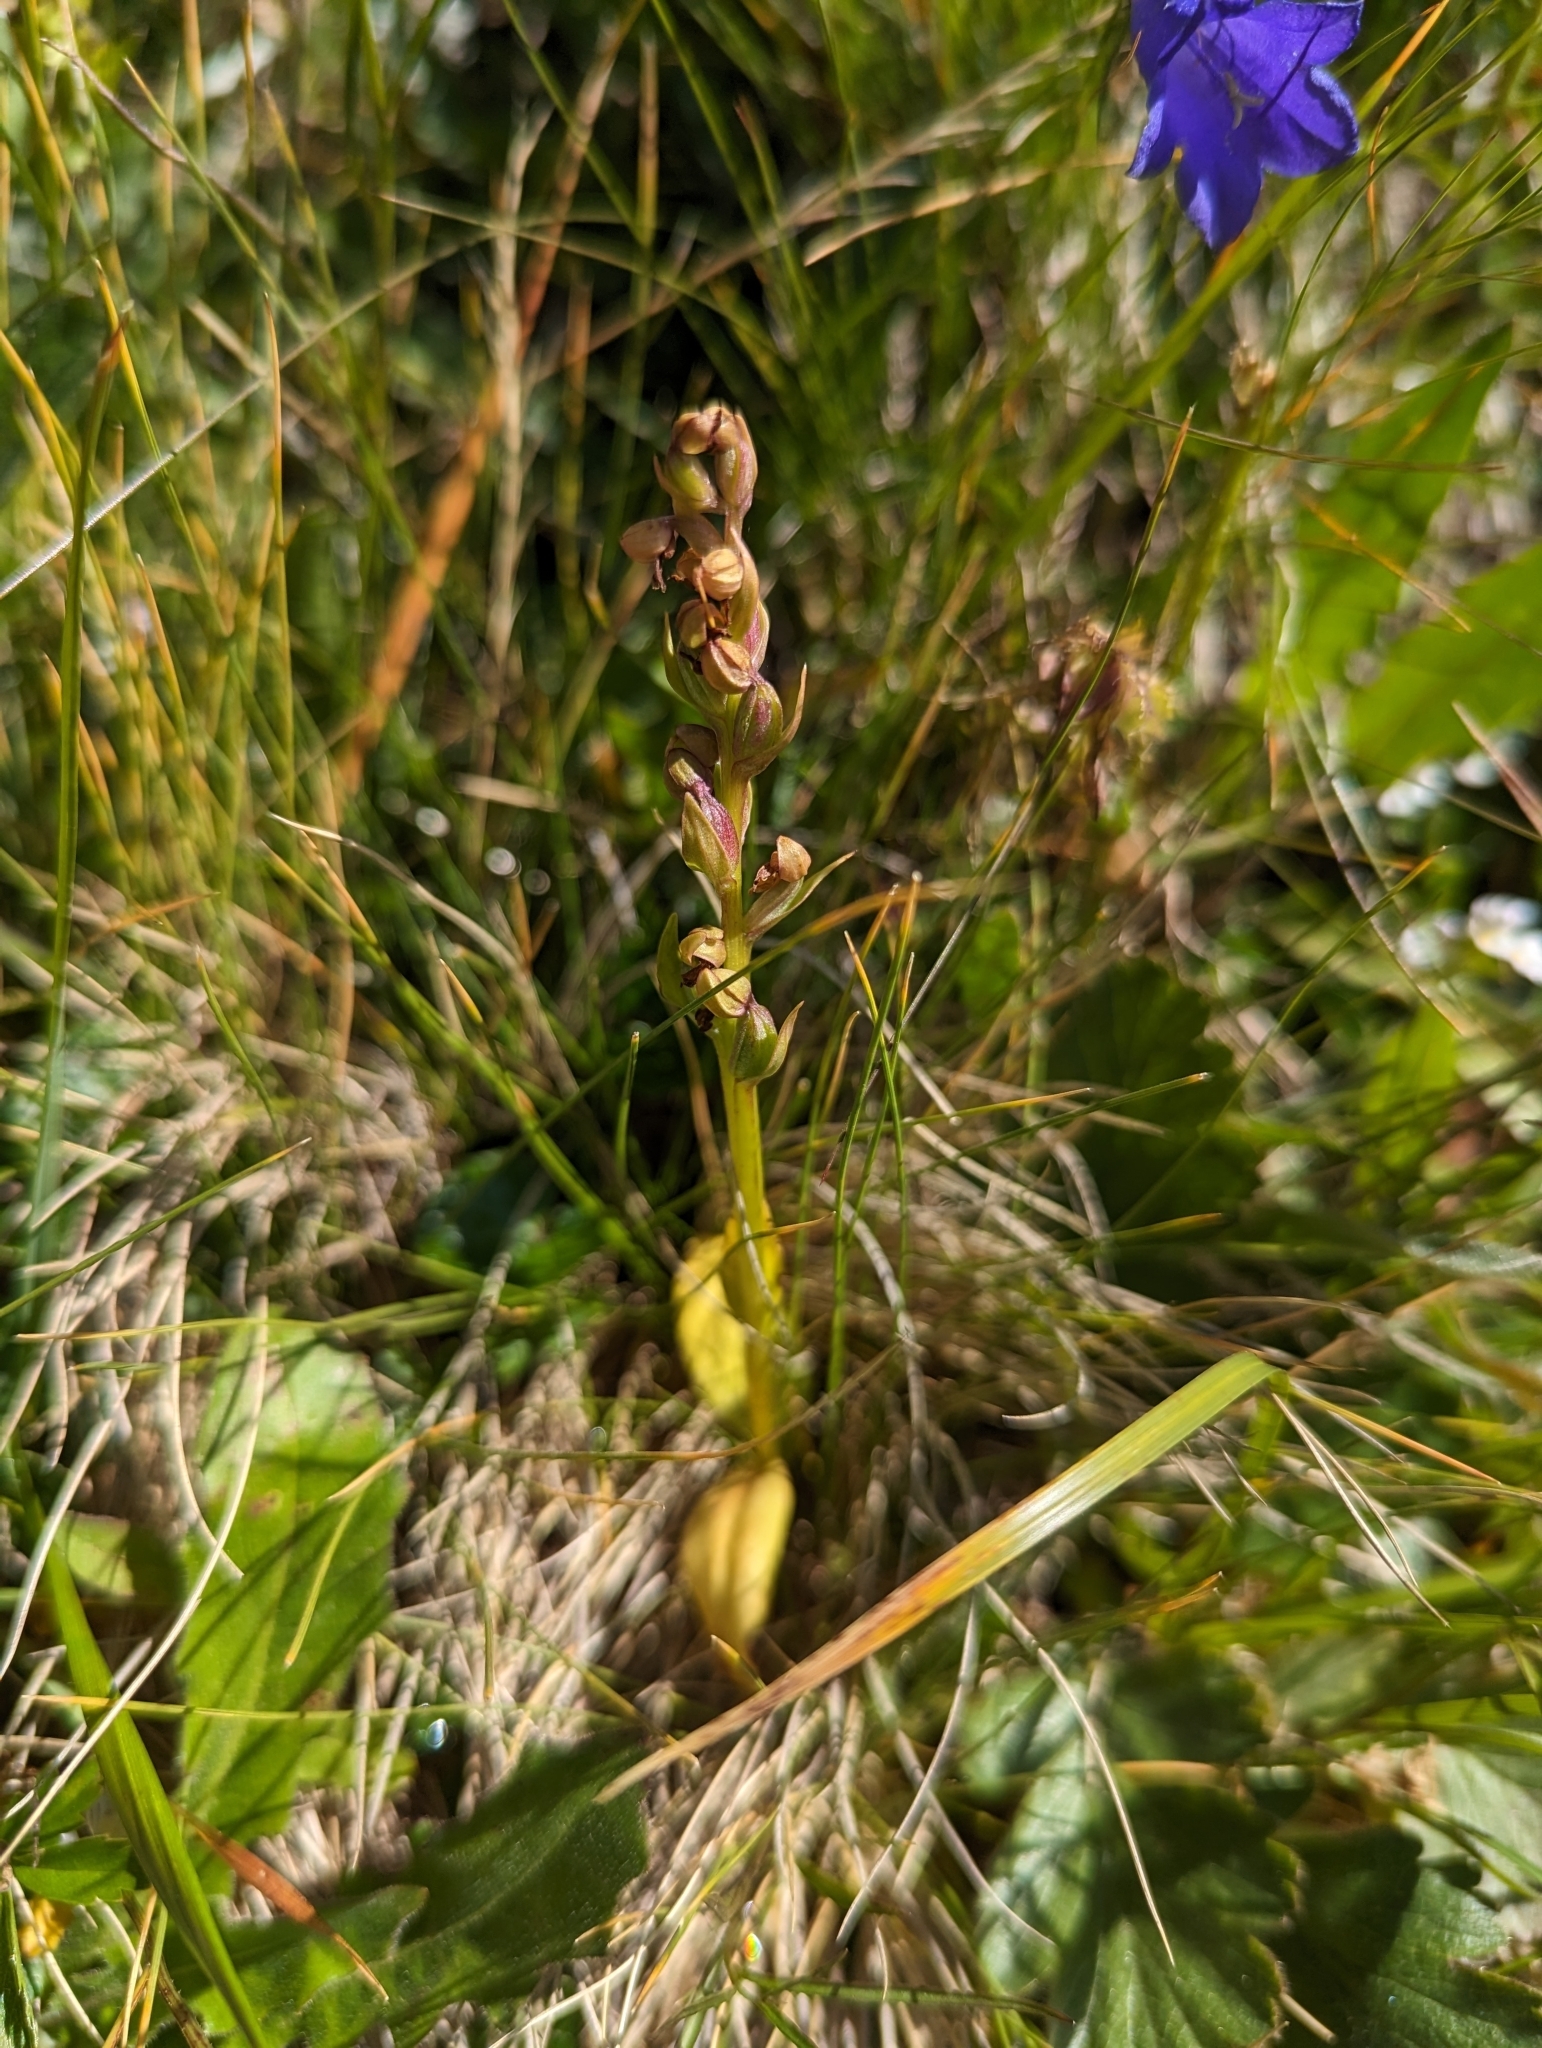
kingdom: Plantae
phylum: Tracheophyta
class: Liliopsida
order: Asparagales
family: Orchidaceae
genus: Dactylorhiza
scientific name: Dactylorhiza viridis
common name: Longbract frog orchid
